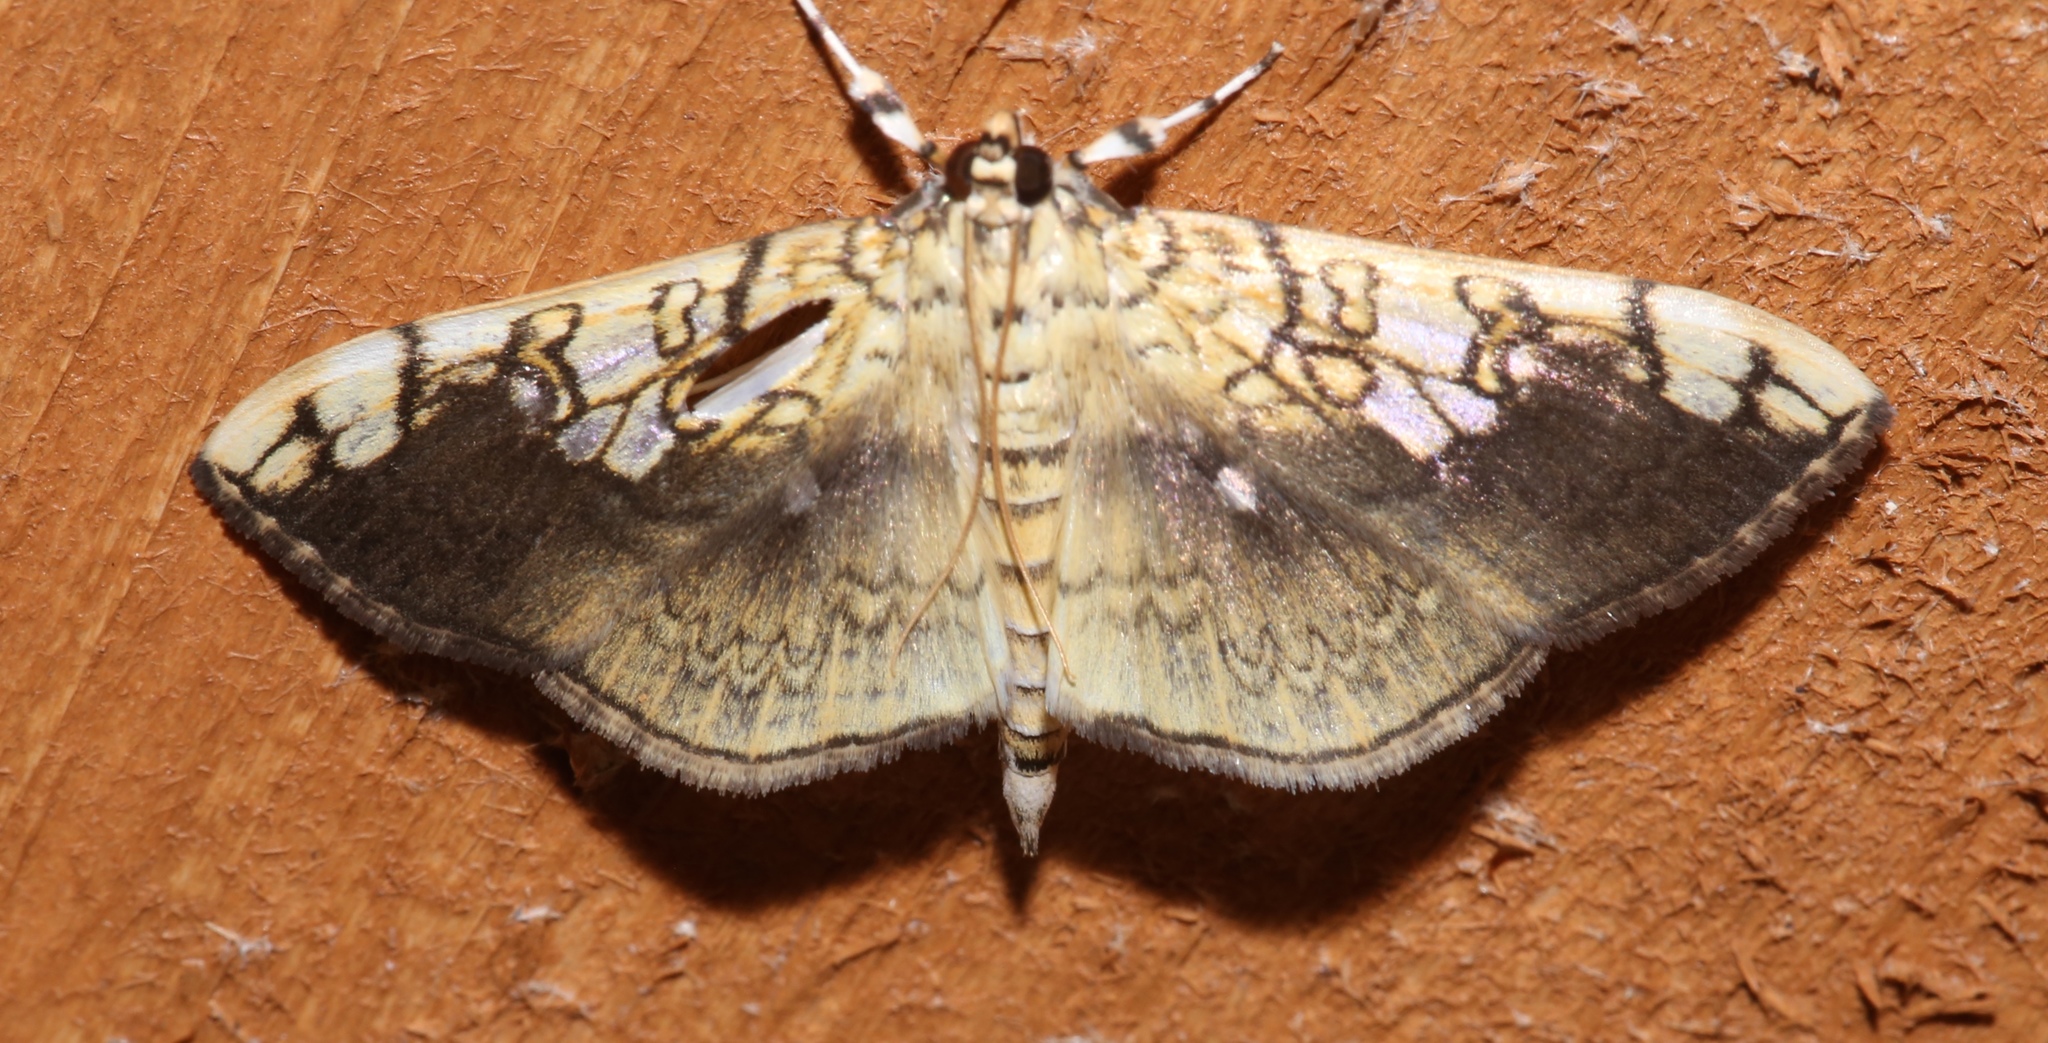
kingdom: Animalia
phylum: Arthropoda
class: Insecta
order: Lepidoptera
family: Crambidae
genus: Pantographa
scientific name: Pantographa limata
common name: Basswood leafroller moth
